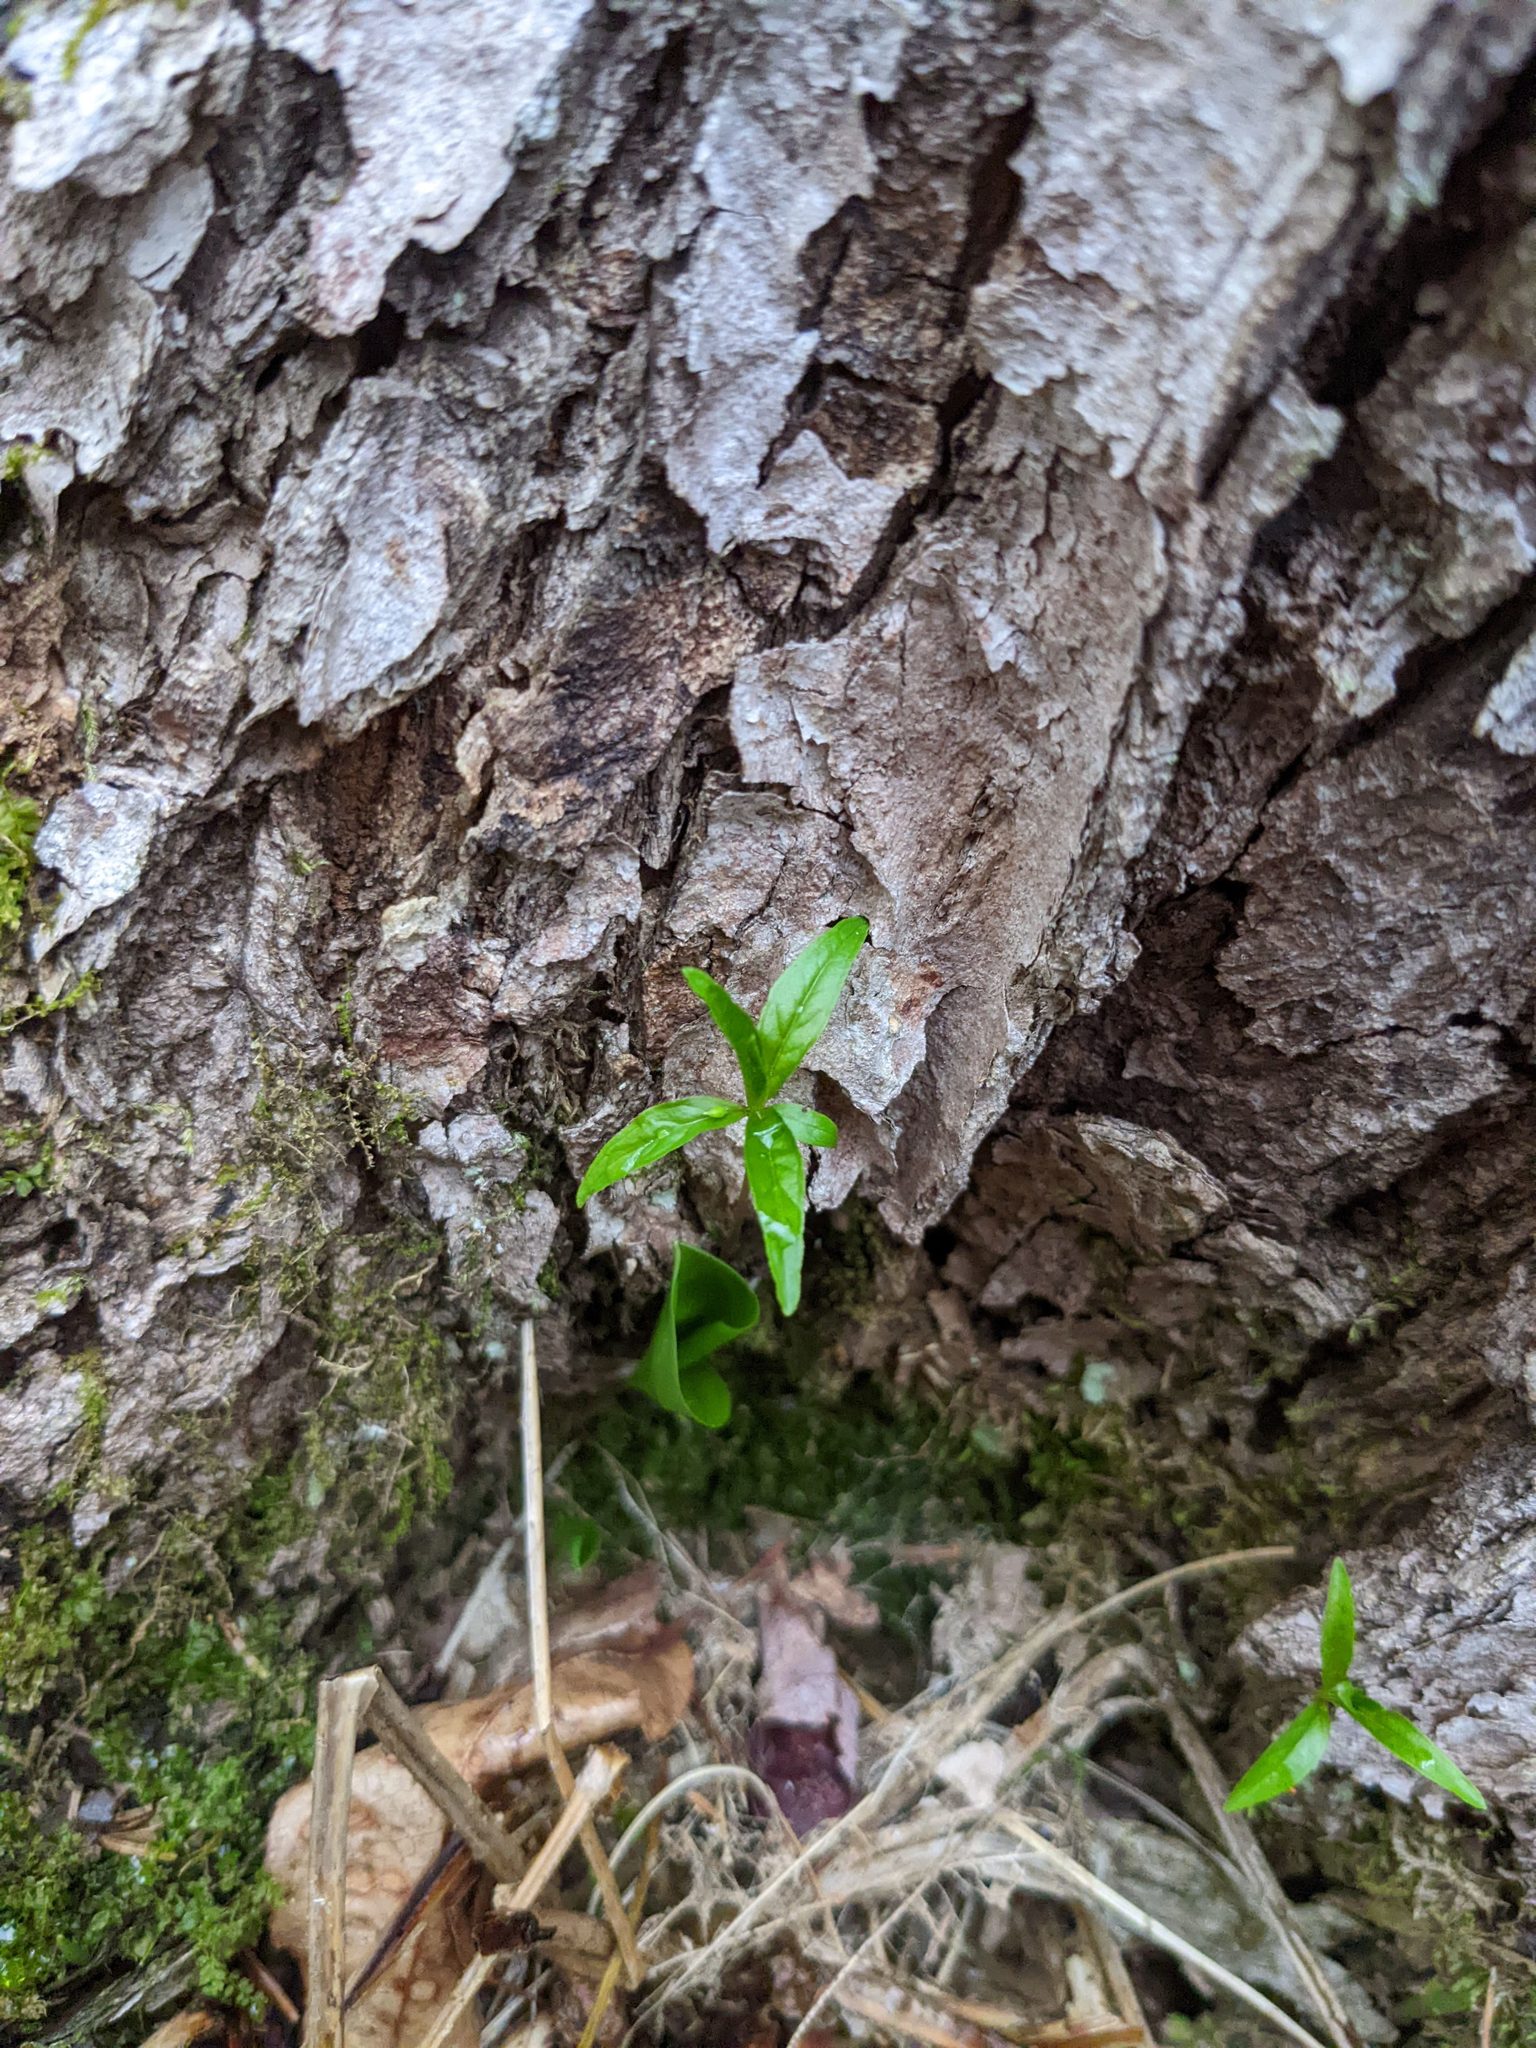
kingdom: Plantae
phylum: Tracheophyta
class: Magnoliopsida
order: Ericales
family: Primulaceae
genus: Lysimachia
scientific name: Lysimachia borealis
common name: American starflower
